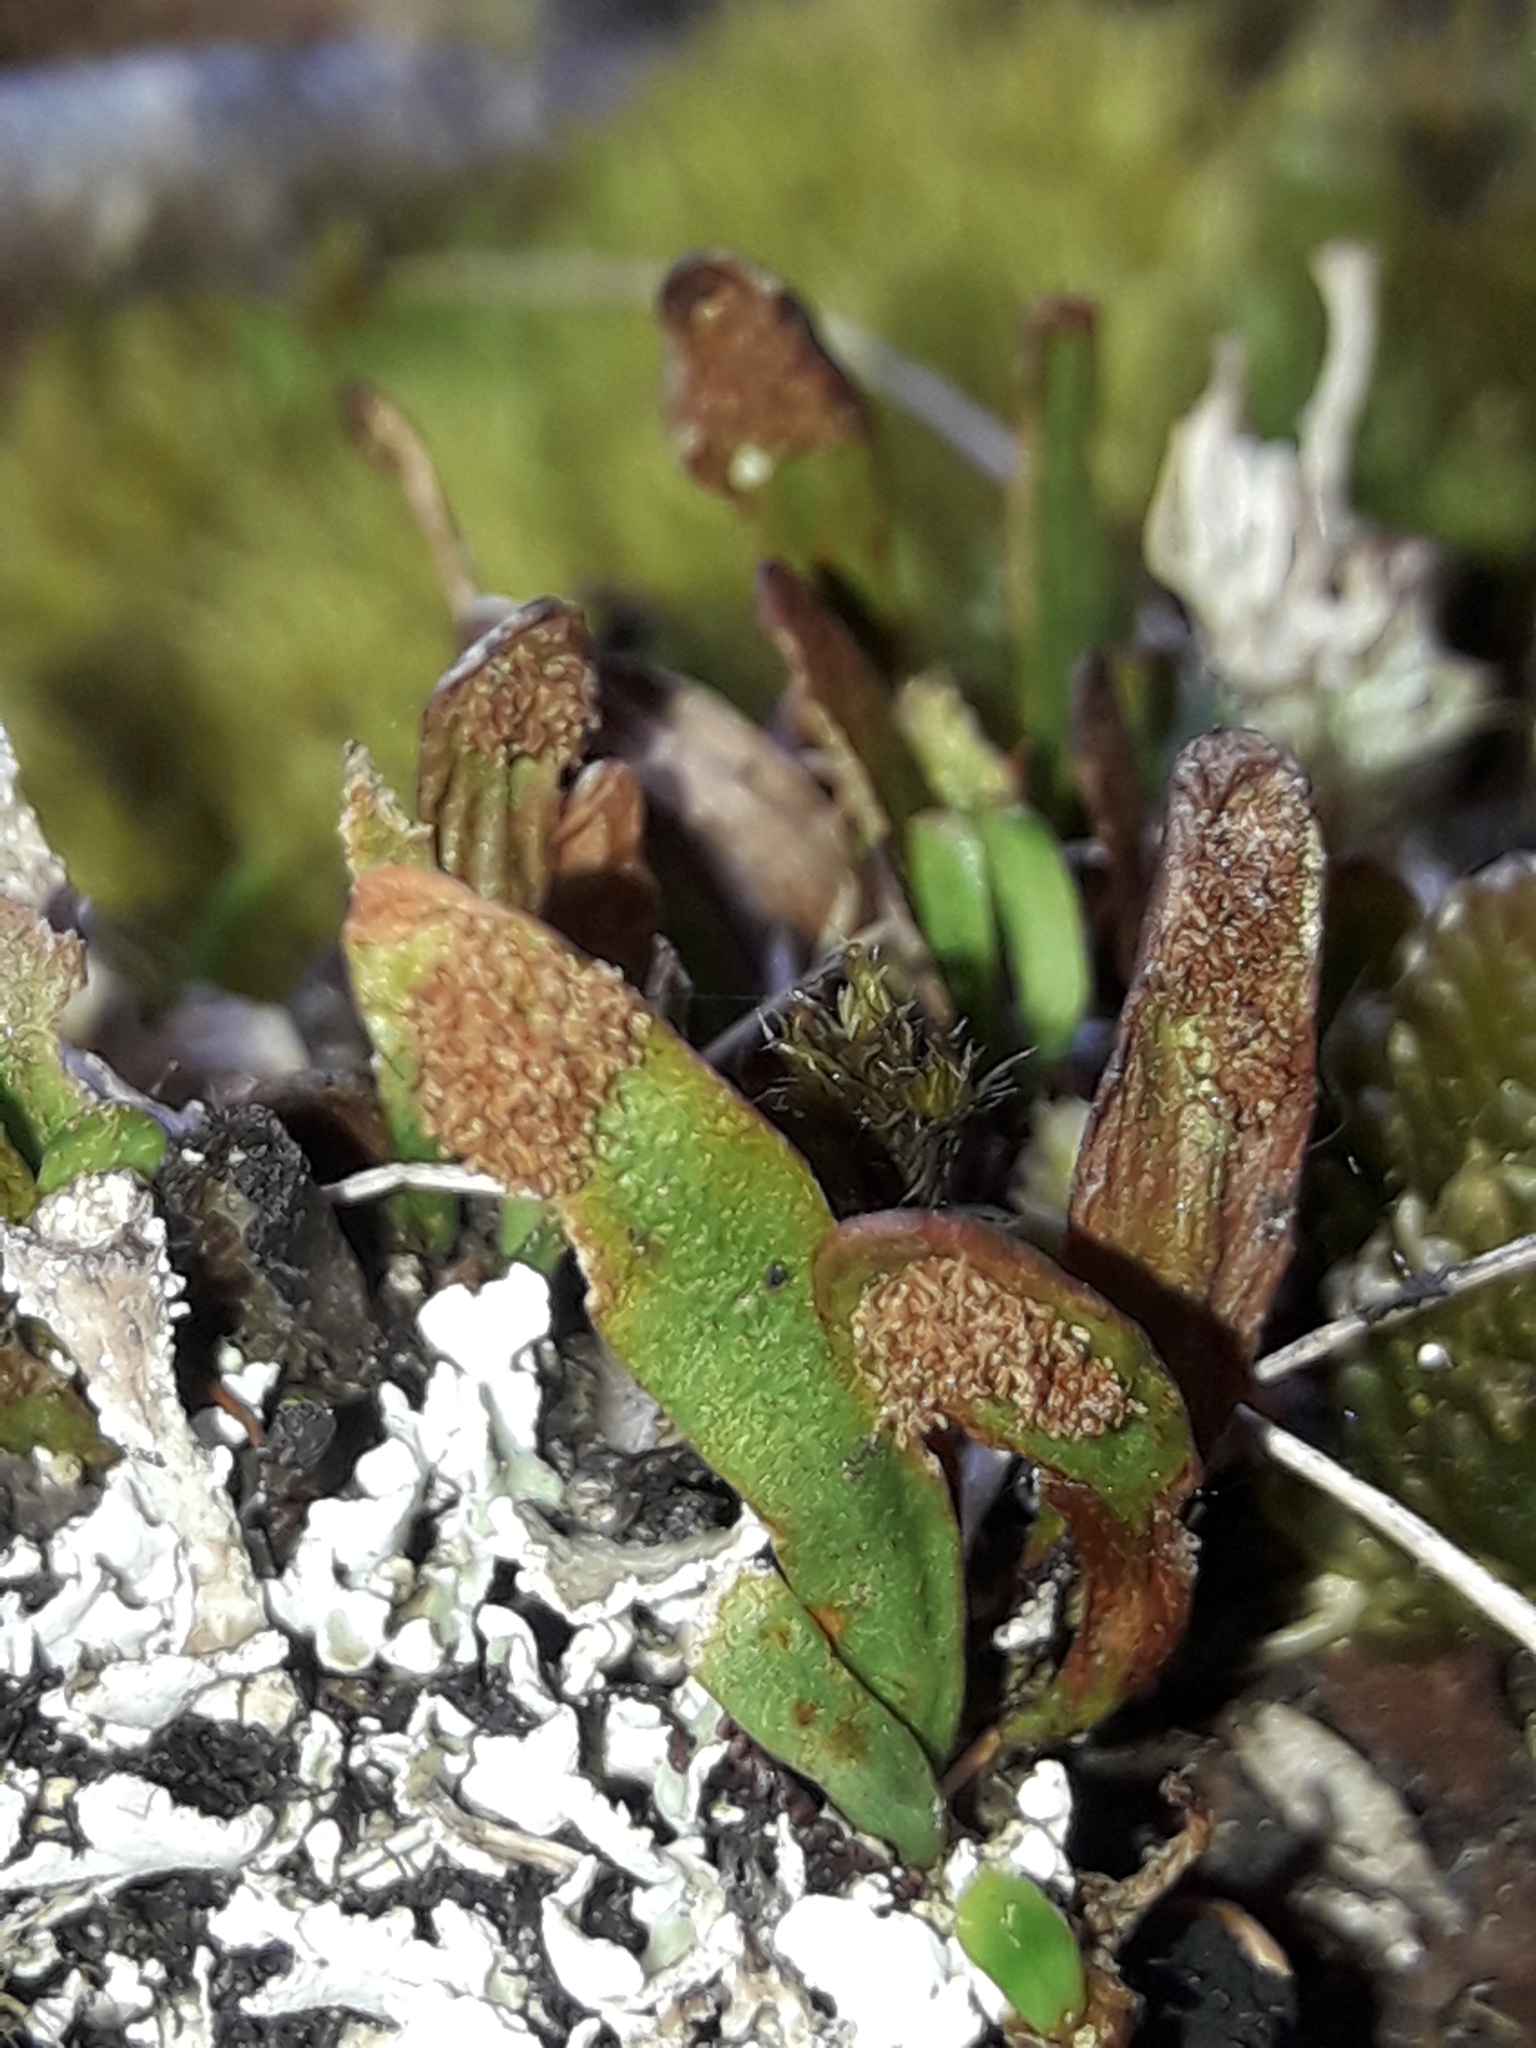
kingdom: Plantae
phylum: Tracheophyta
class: Polypodiopsida
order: Polypodiales
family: Polypodiaceae
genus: Notogrammitis
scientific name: Notogrammitis crassior
